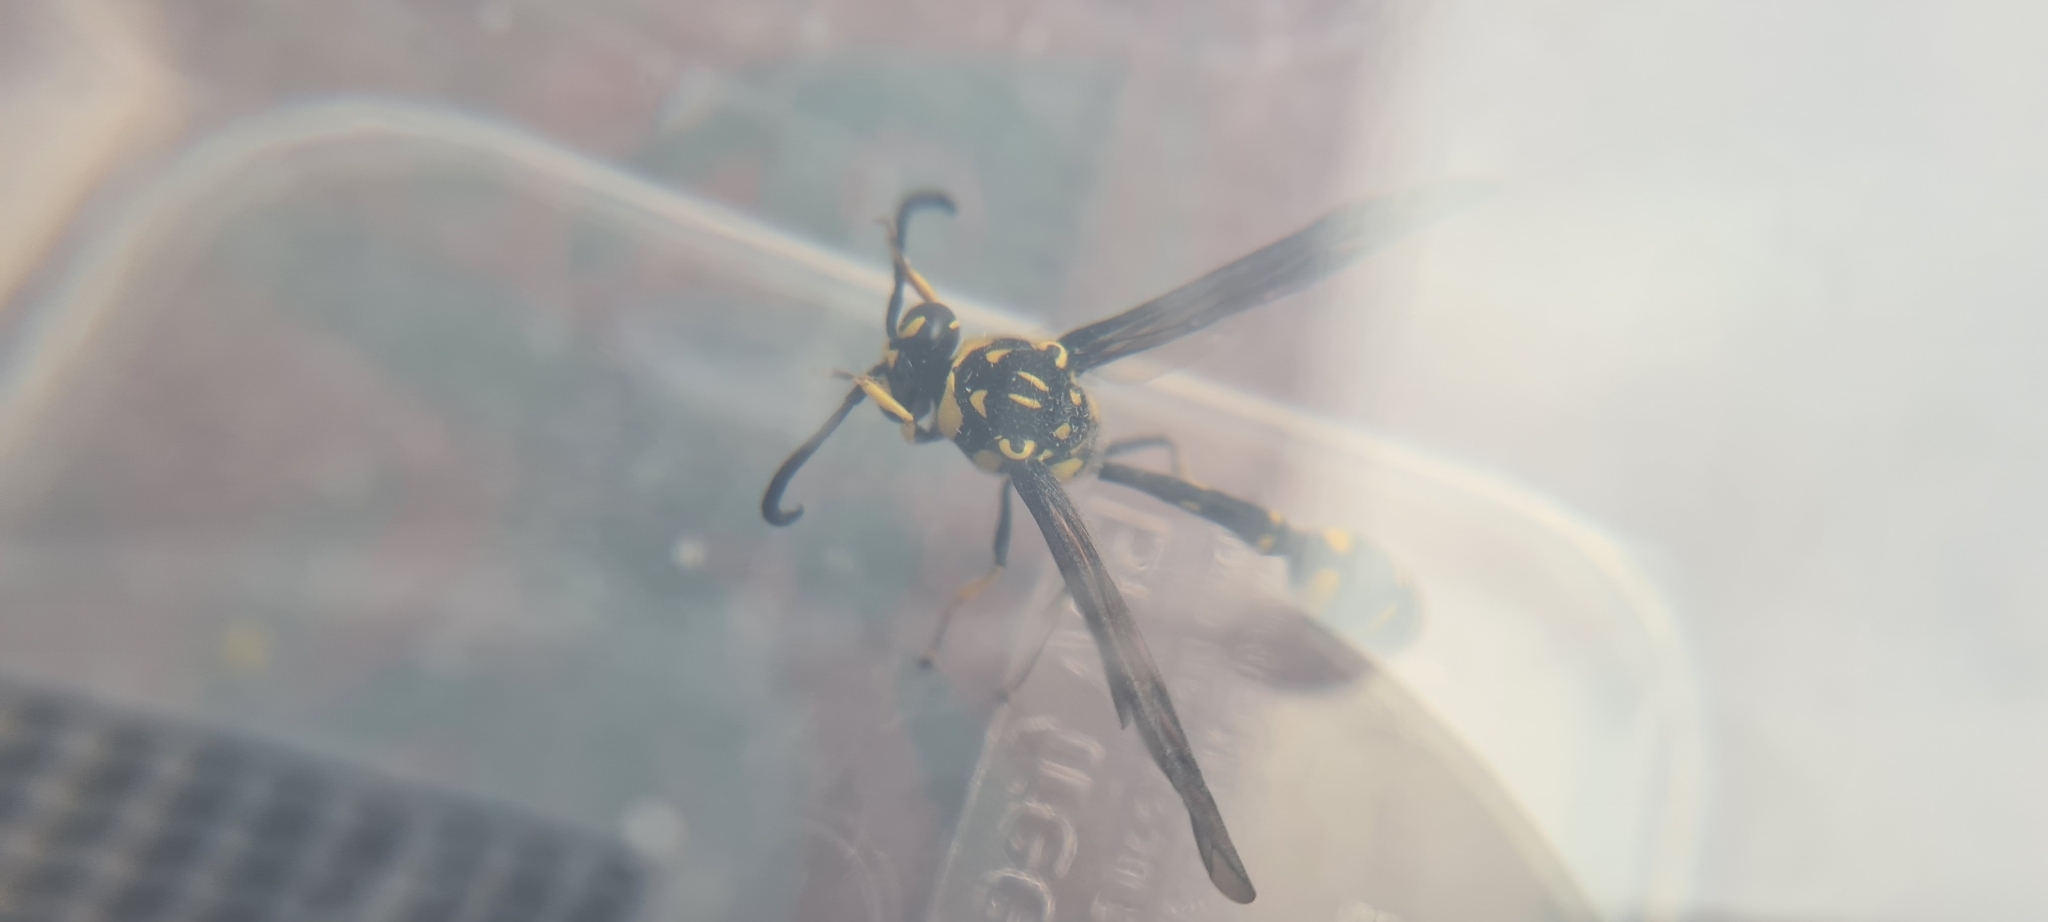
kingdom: Animalia
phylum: Arthropoda
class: Insecta
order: Hymenoptera
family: Eumenidae
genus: Phimenes
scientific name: Phimenes arcuatus
